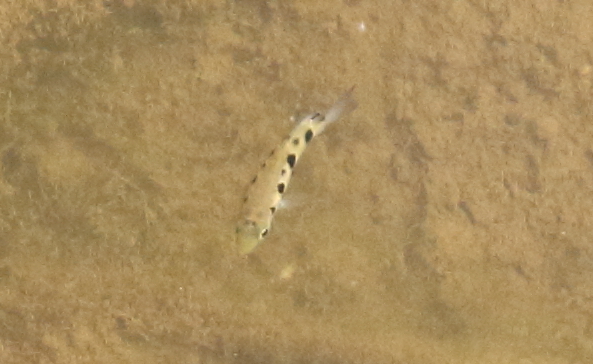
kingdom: Animalia
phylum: Chordata
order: Perciformes
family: Toxotidae
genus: Toxotes
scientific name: Toxotes chatareus
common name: Spotted archerfish
